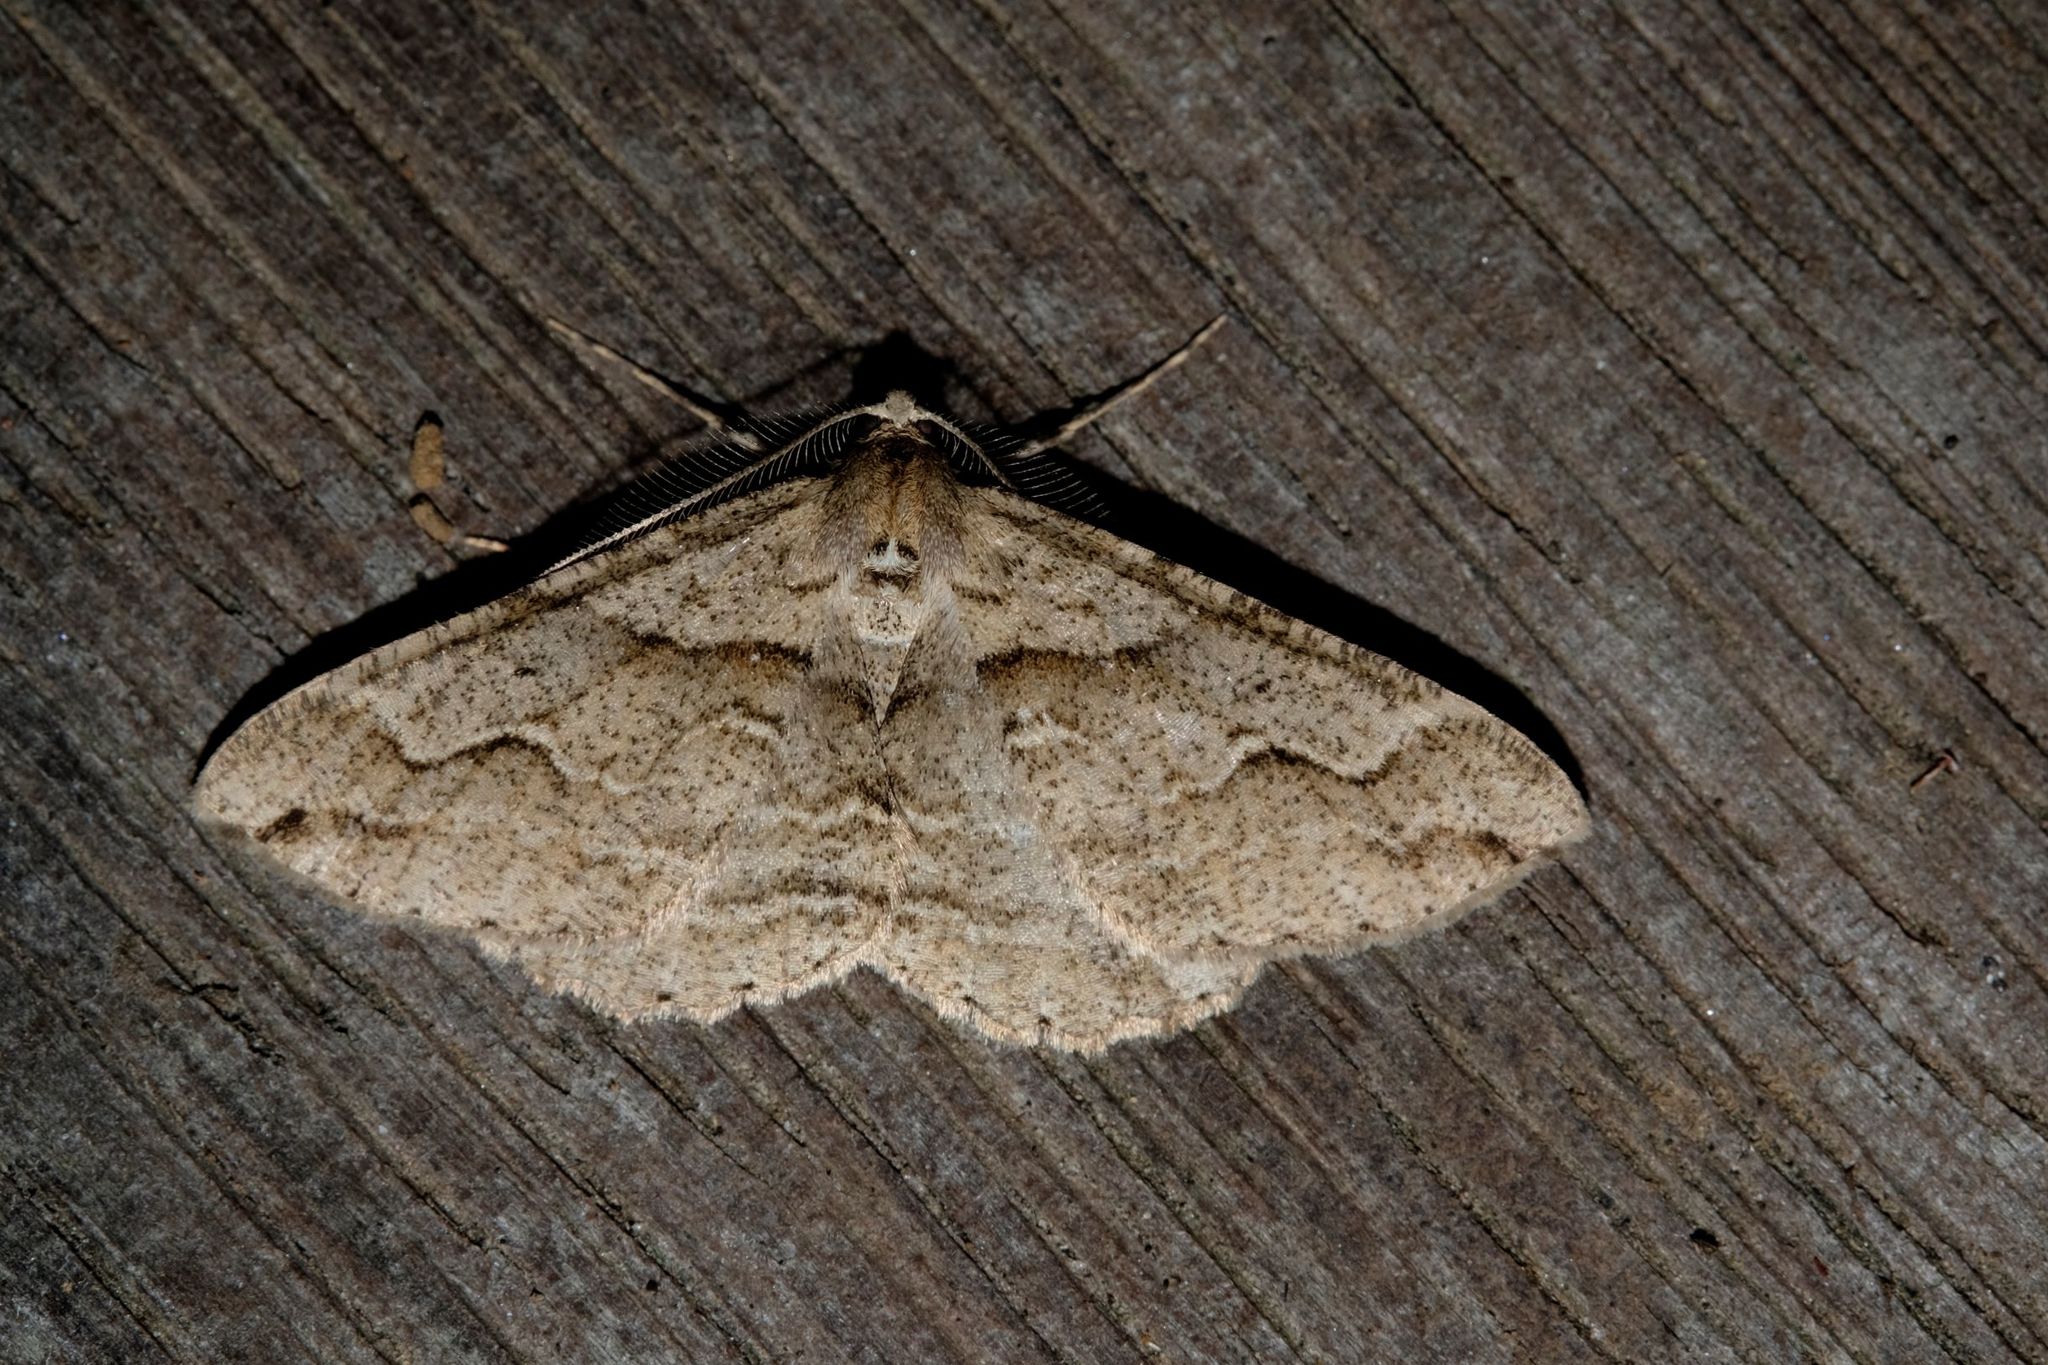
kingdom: Animalia
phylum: Arthropoda
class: Insecta
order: Lepidoptera
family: Geometridae
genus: Syneora
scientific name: Syneora fractata
